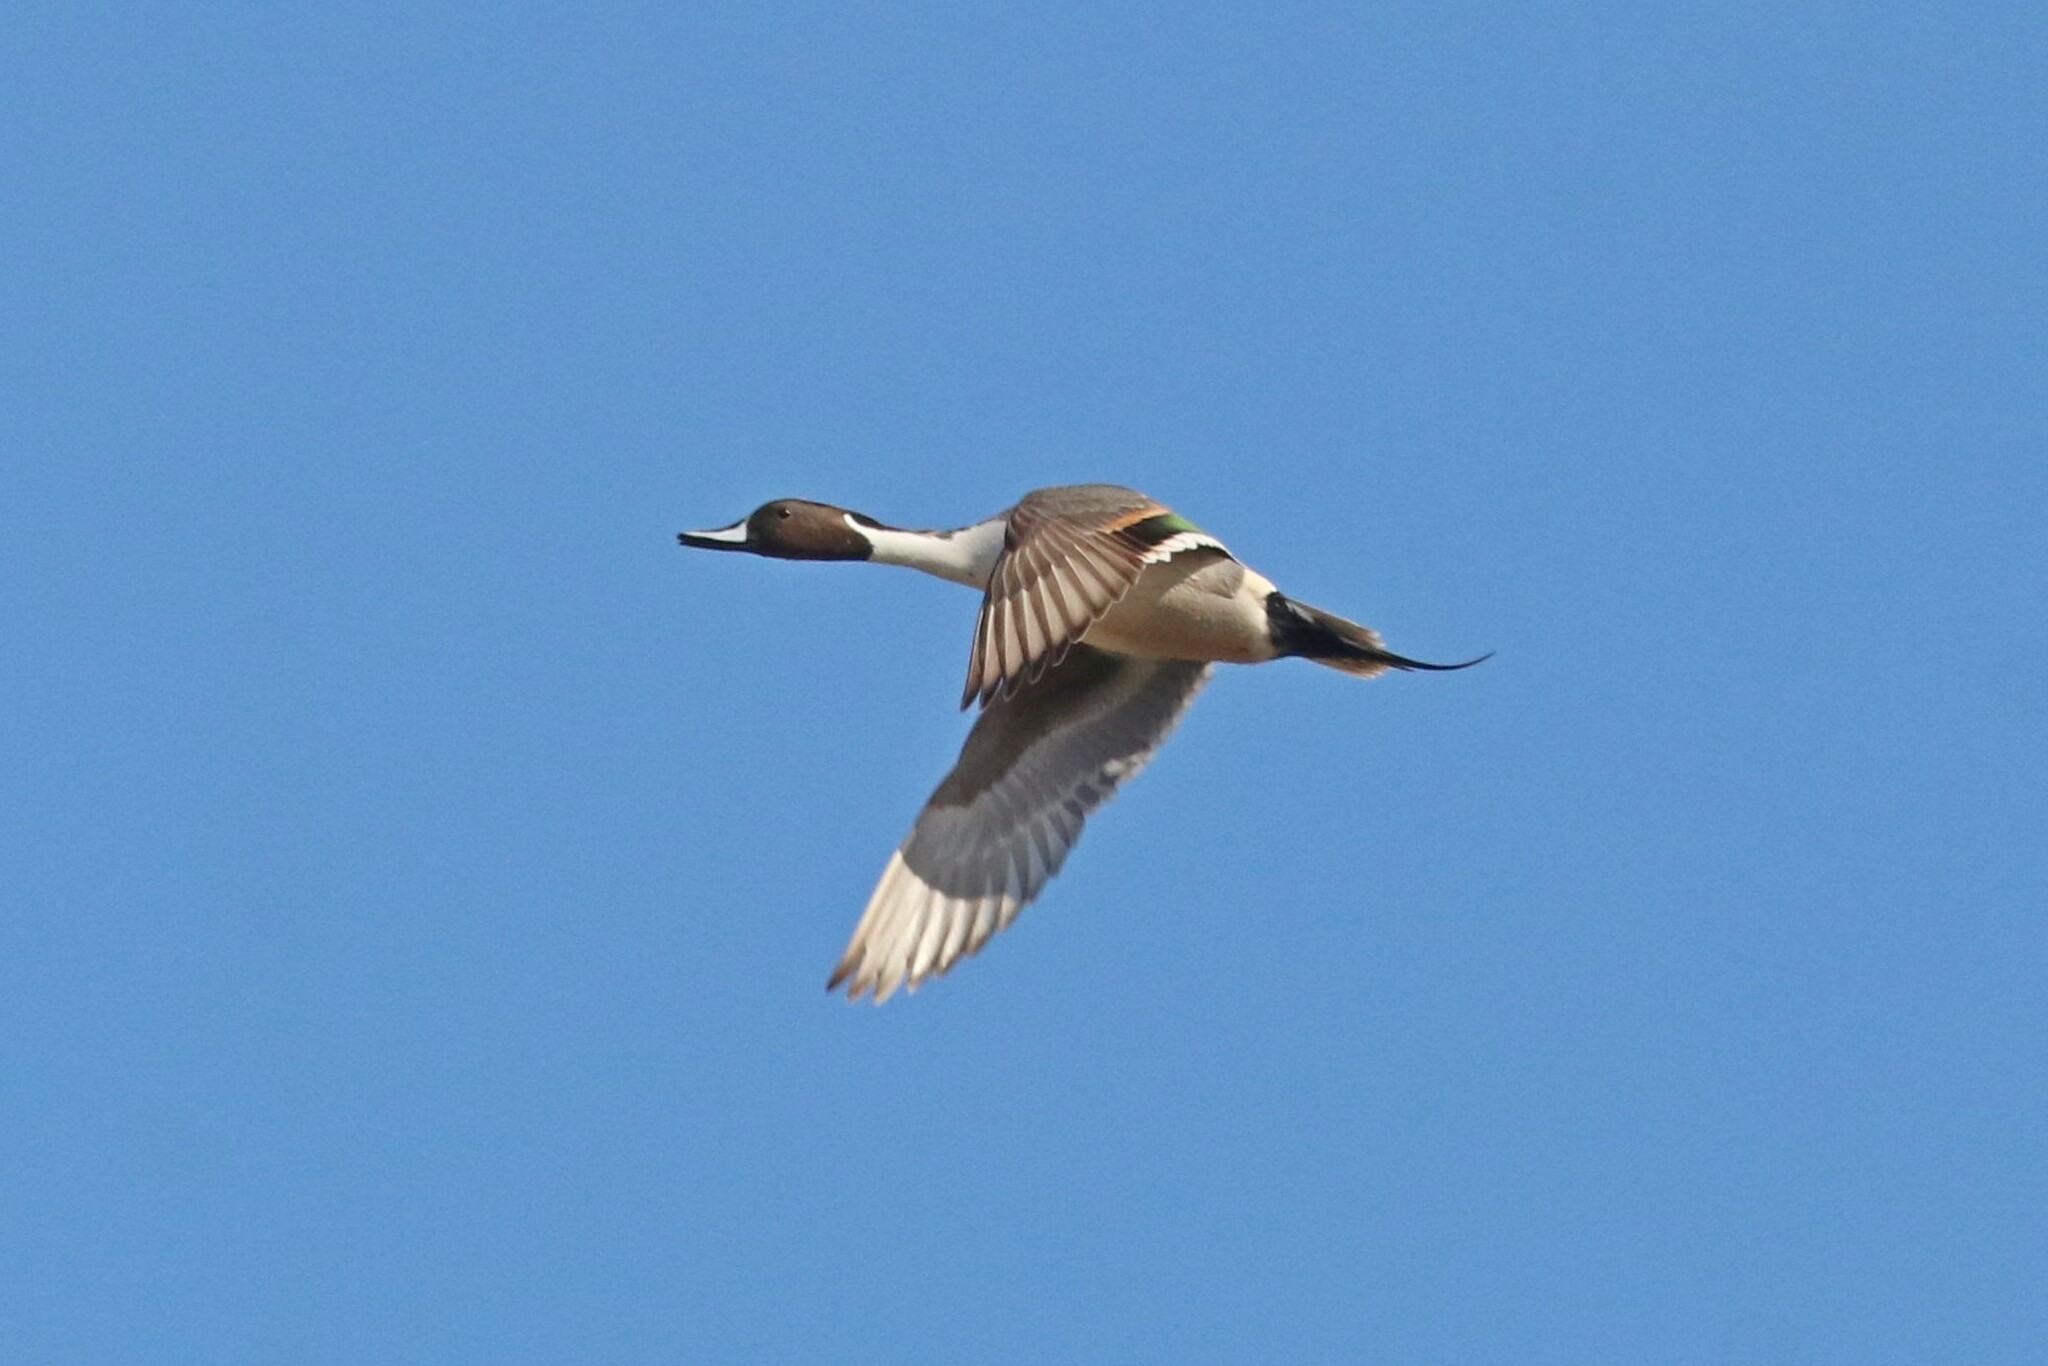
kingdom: Animalia
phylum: Chordata
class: Aves
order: Anseriformes
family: Anatidae
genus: Anas
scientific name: Anas acuta
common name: Northern pintail
